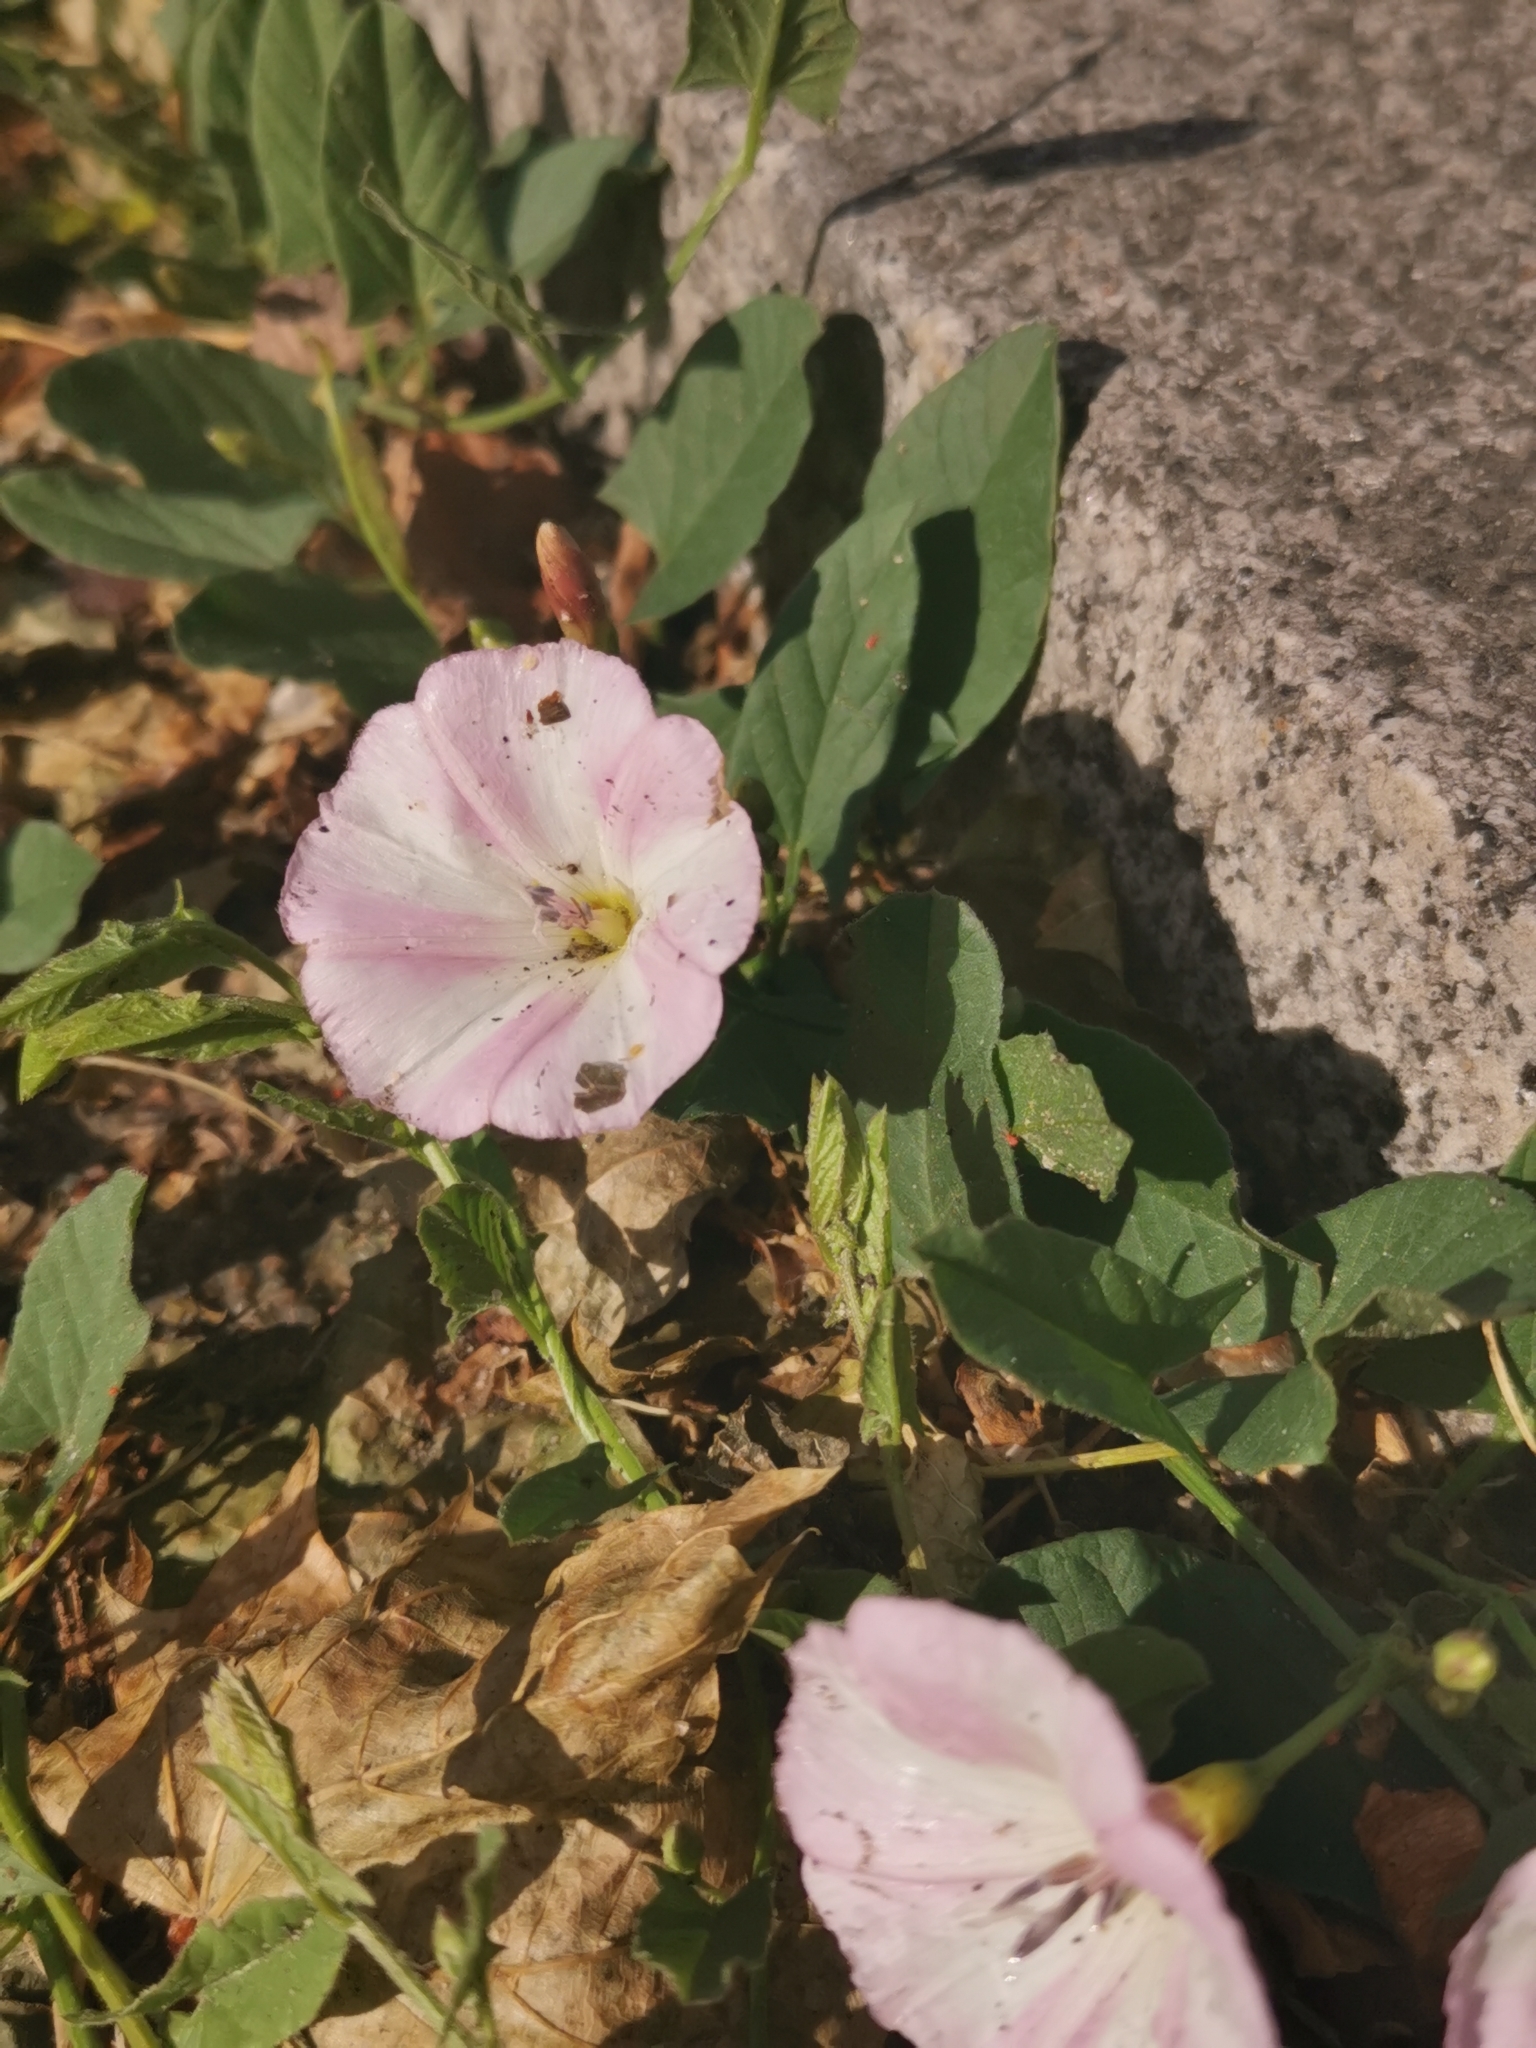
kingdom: Plantae
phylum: Tracheophyta
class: Magnoliopsida
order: Solanales
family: Convolvulaceae
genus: Convolvulus
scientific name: Convolvulus arvensis
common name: Field bindweed
